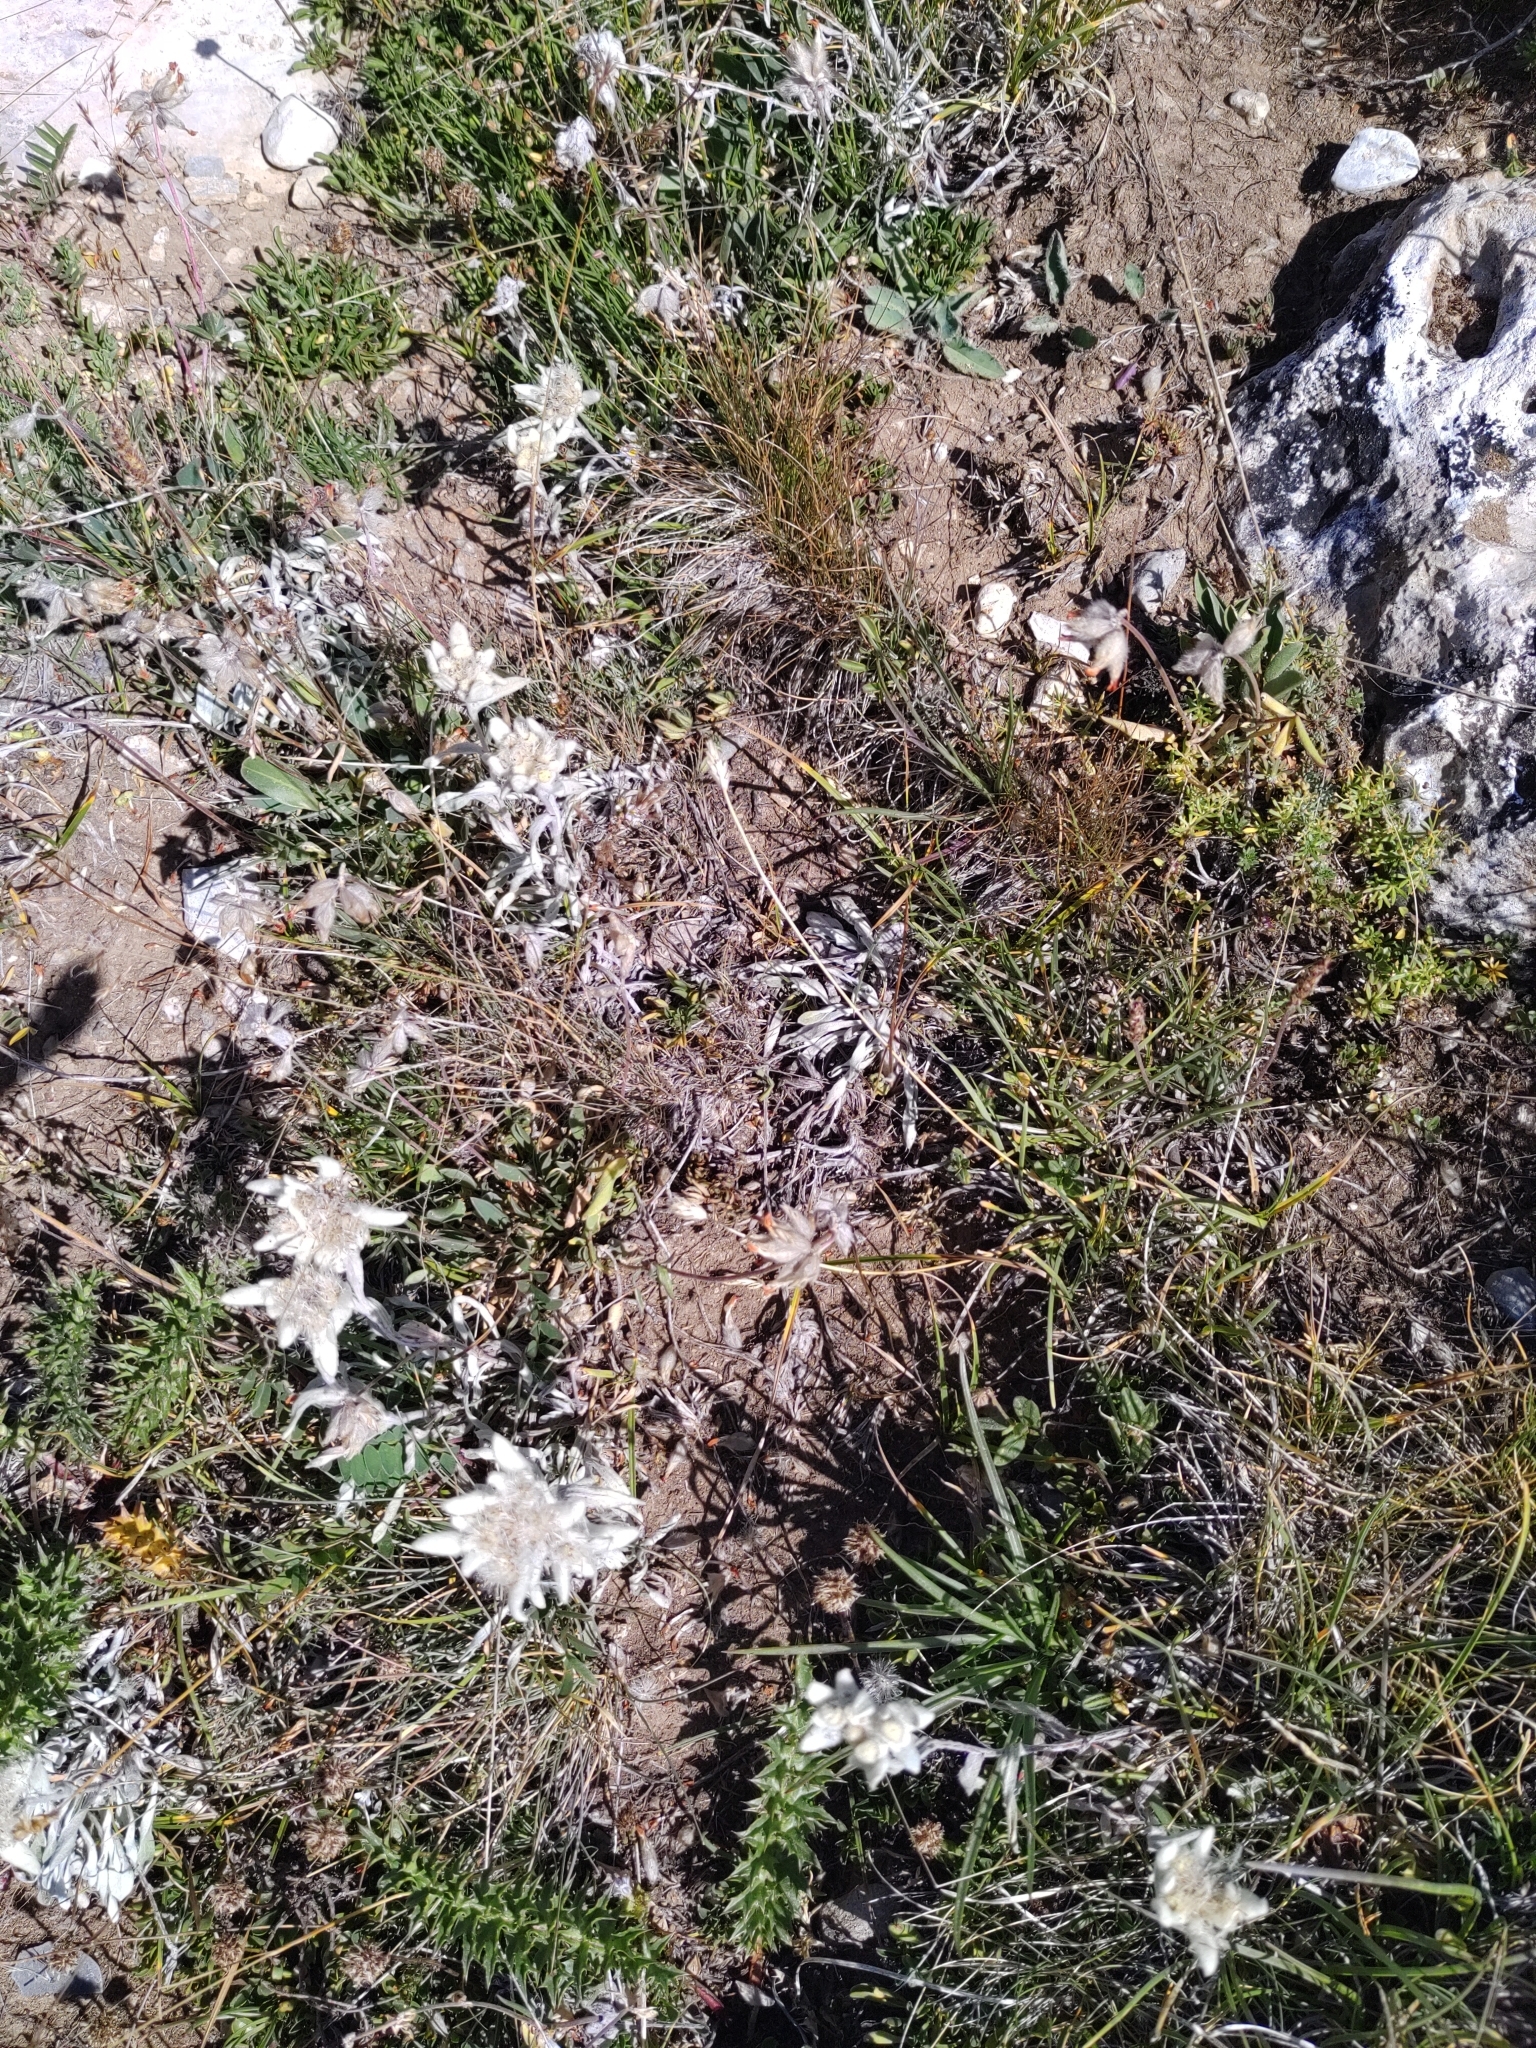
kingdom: Plantae
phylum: Tracheophyta
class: Magnoliopsida
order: Asterales
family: Asteraceae
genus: Leontopodium
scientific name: Leontopodium nivale
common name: Edelweiss
